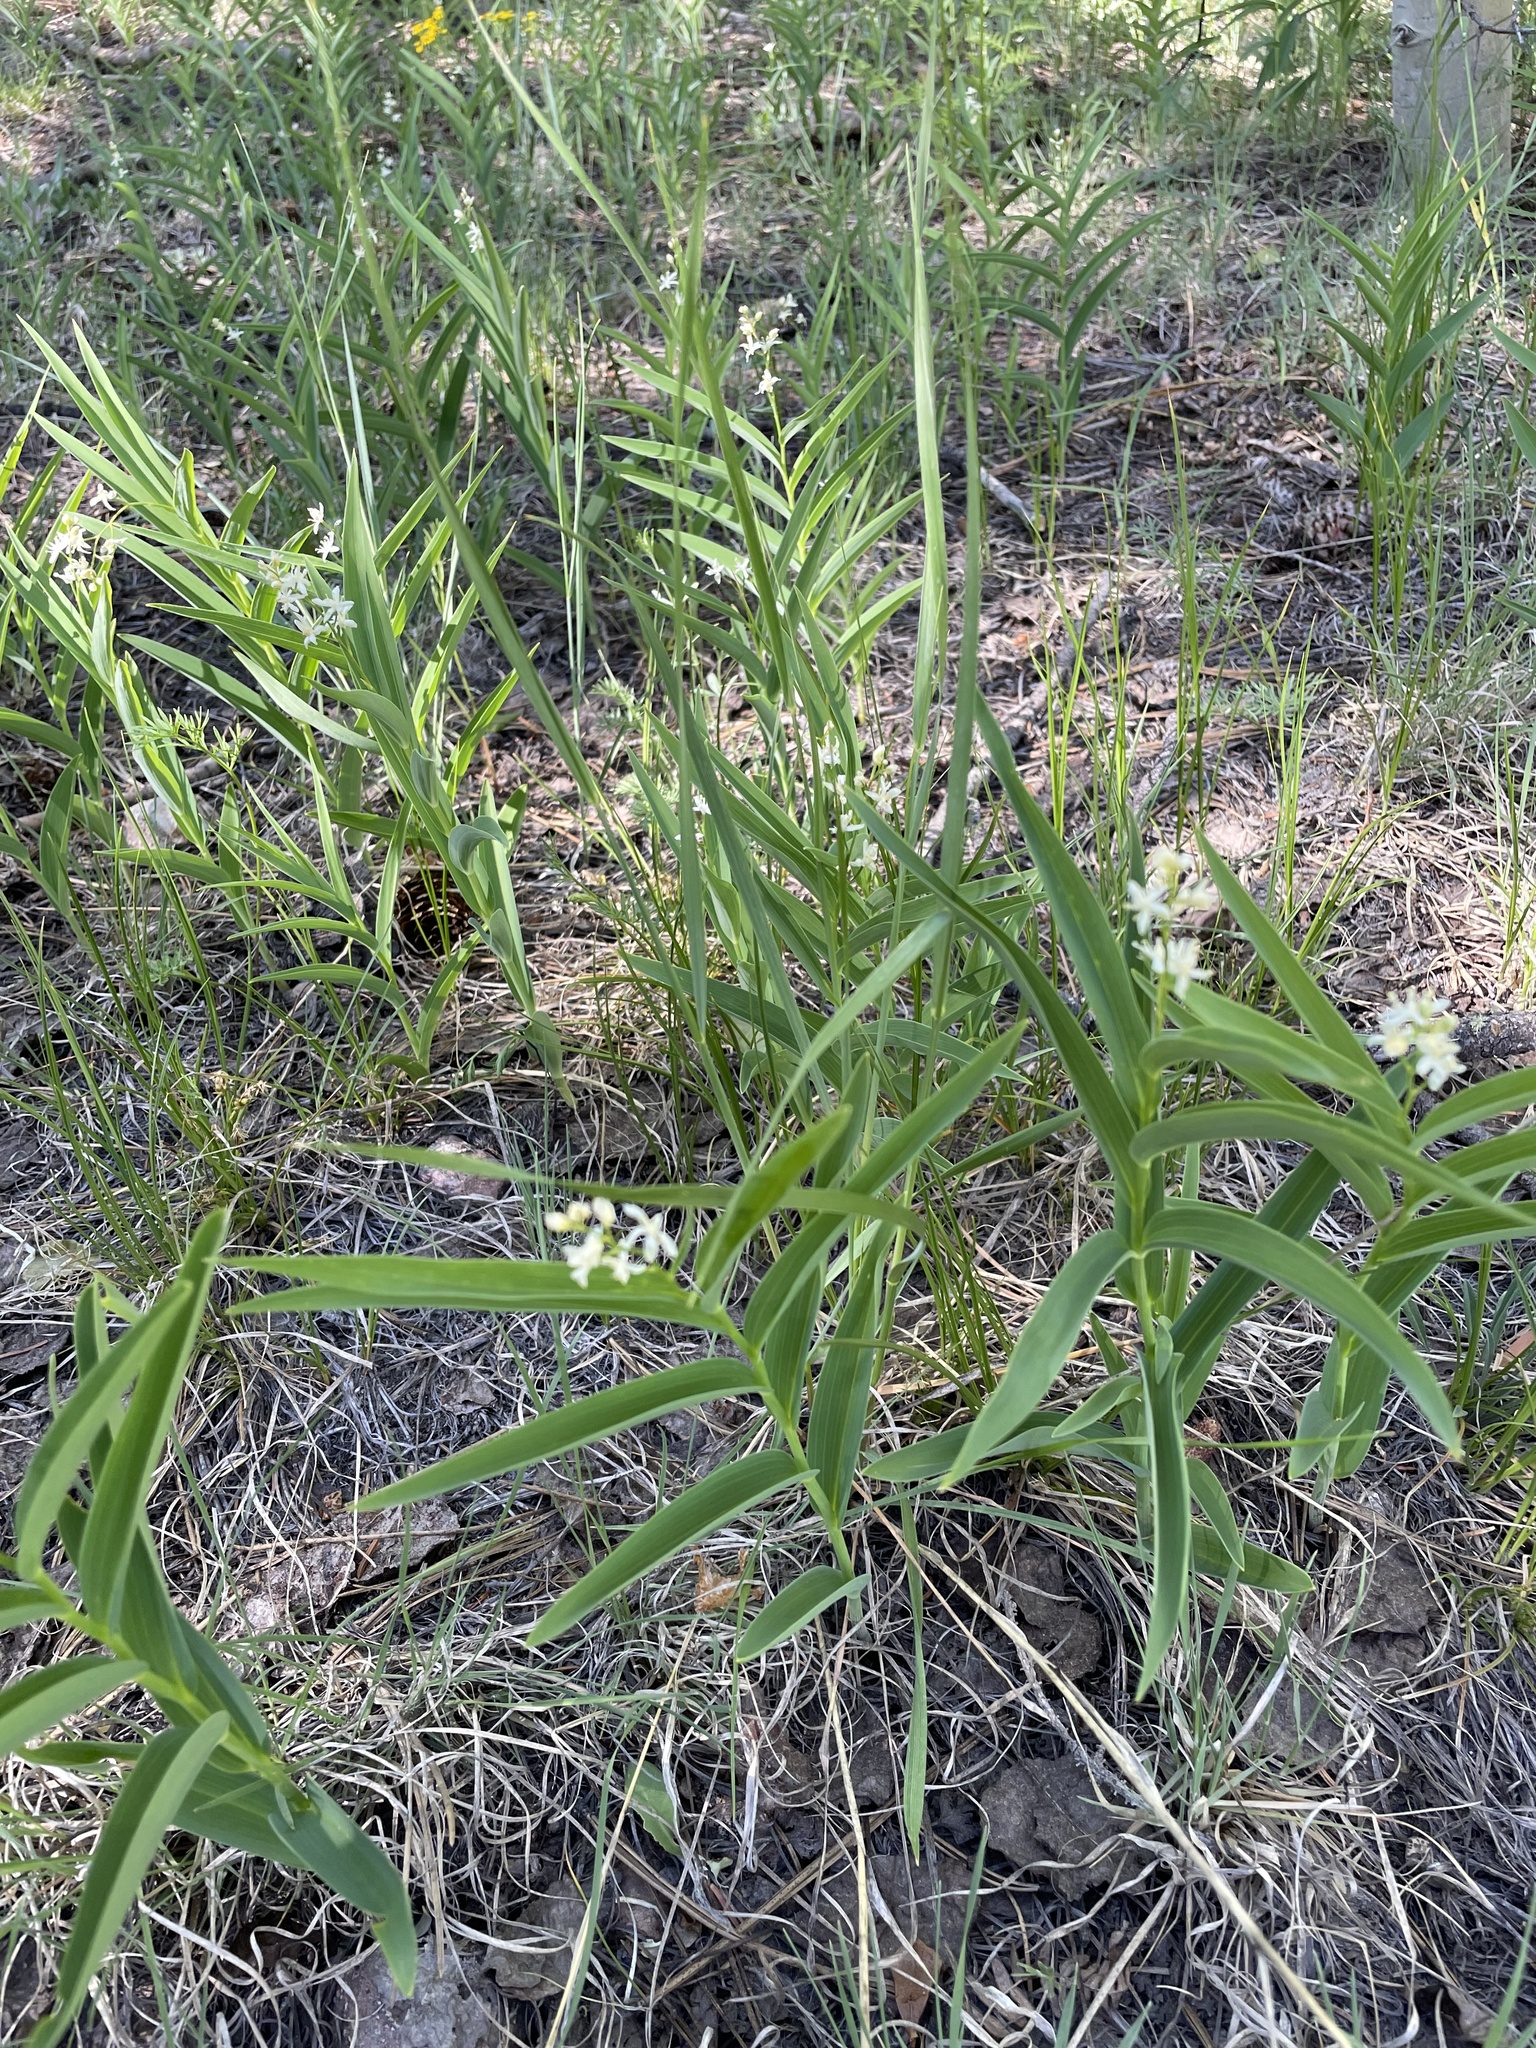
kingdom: Plantae
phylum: Tracheophyta
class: Liliopsida
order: Asparagales
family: Asparagaceae
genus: Maianthemum
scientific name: Maianthemum stellatum
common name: Little false solomon's seal
